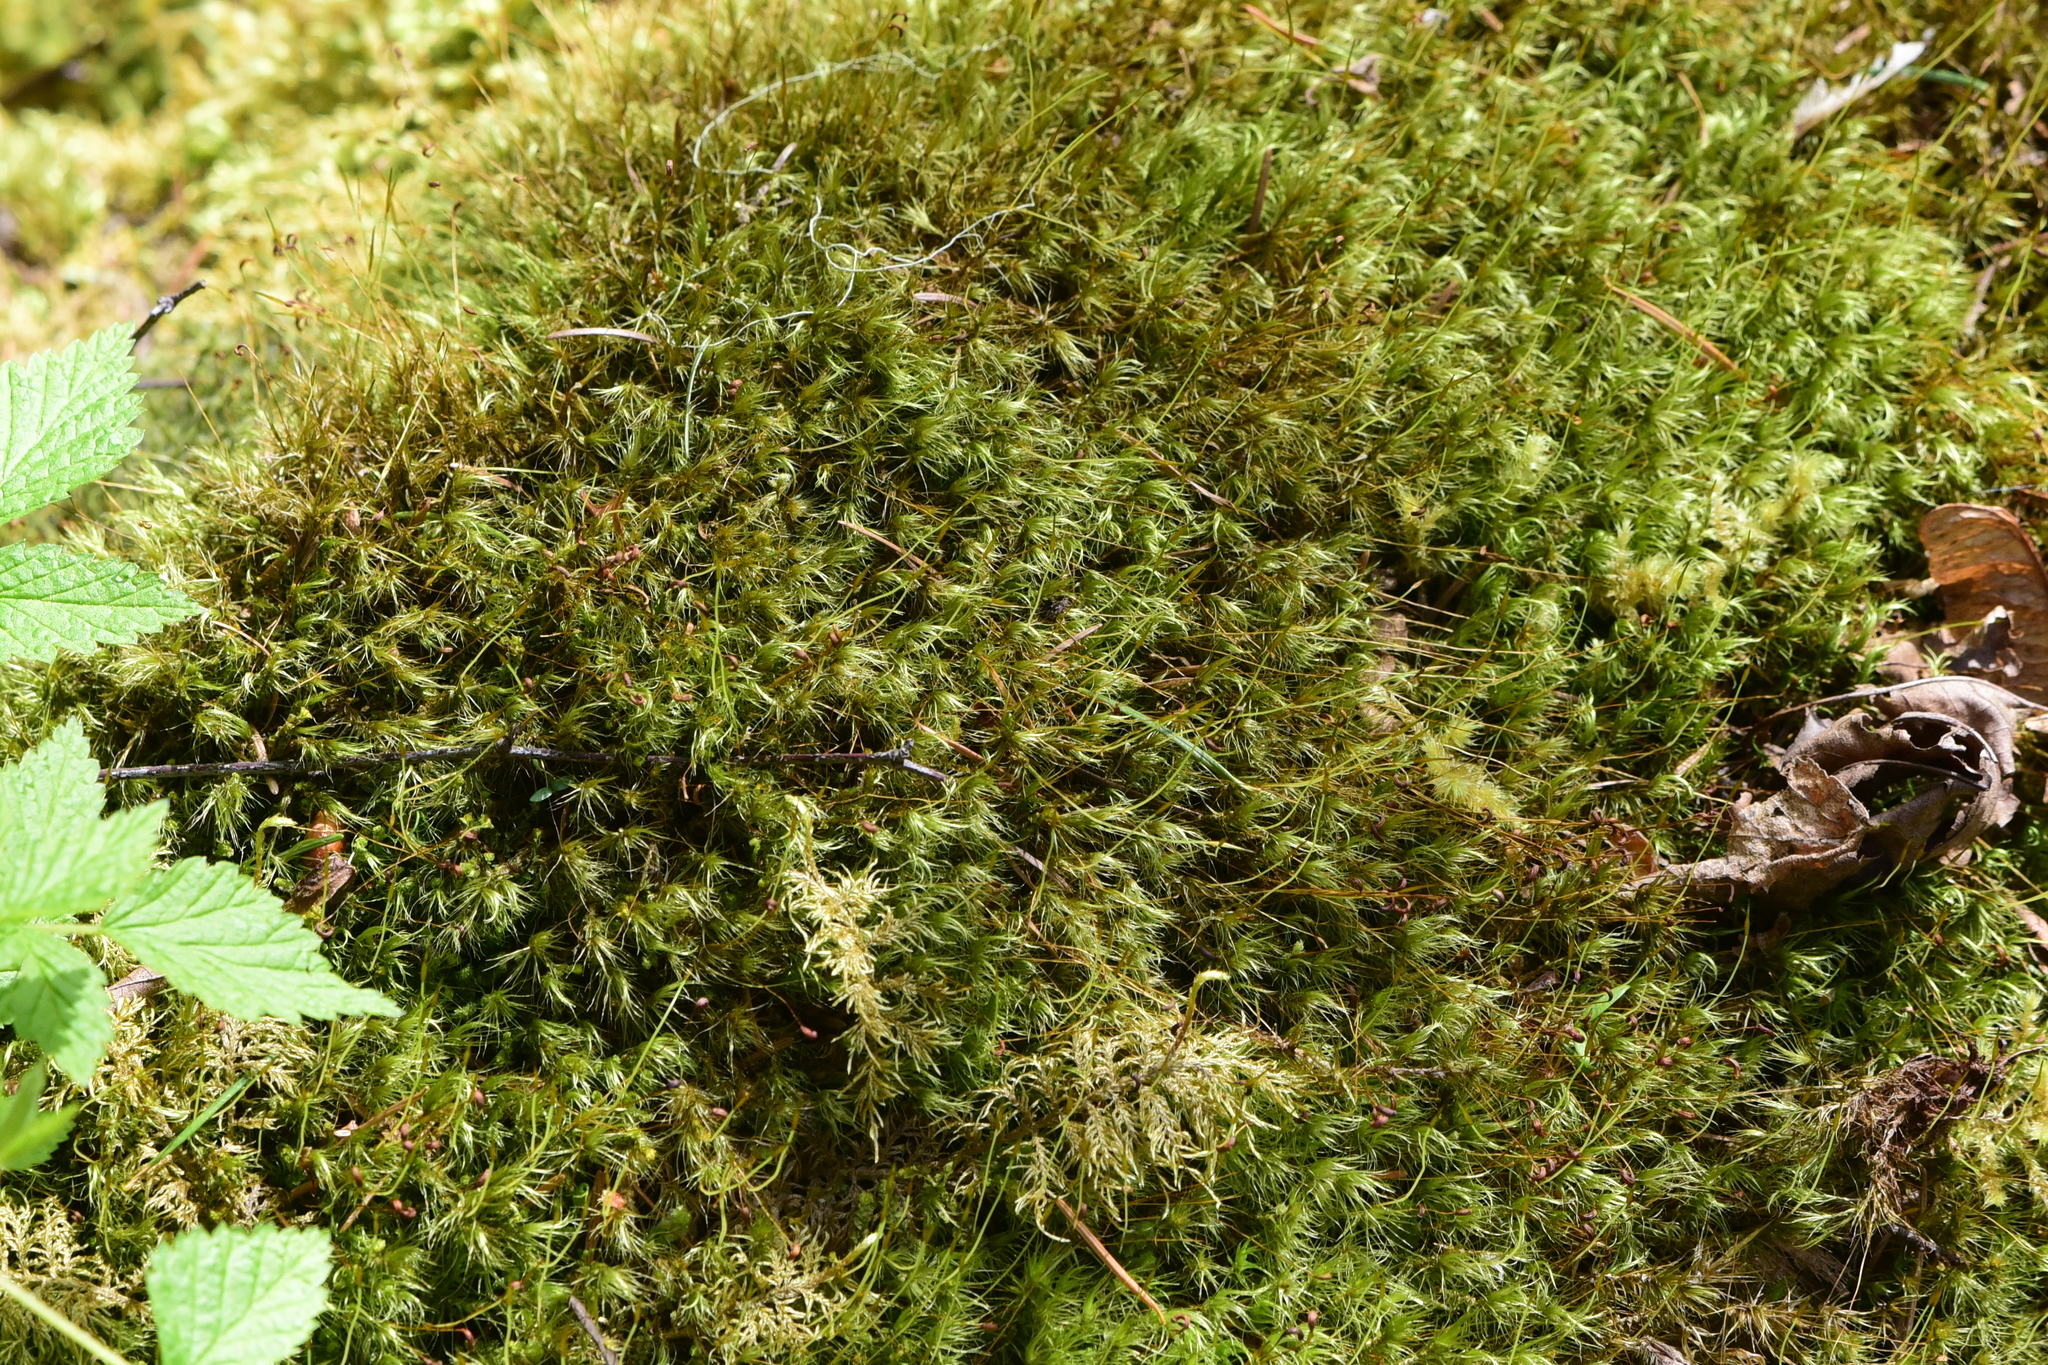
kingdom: Plantae
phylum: Bryophyta
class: Bryopsida
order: Dicranales
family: Dicranaceae
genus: Dicranum
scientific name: Dicranum scoparium
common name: Broom fork-moss
